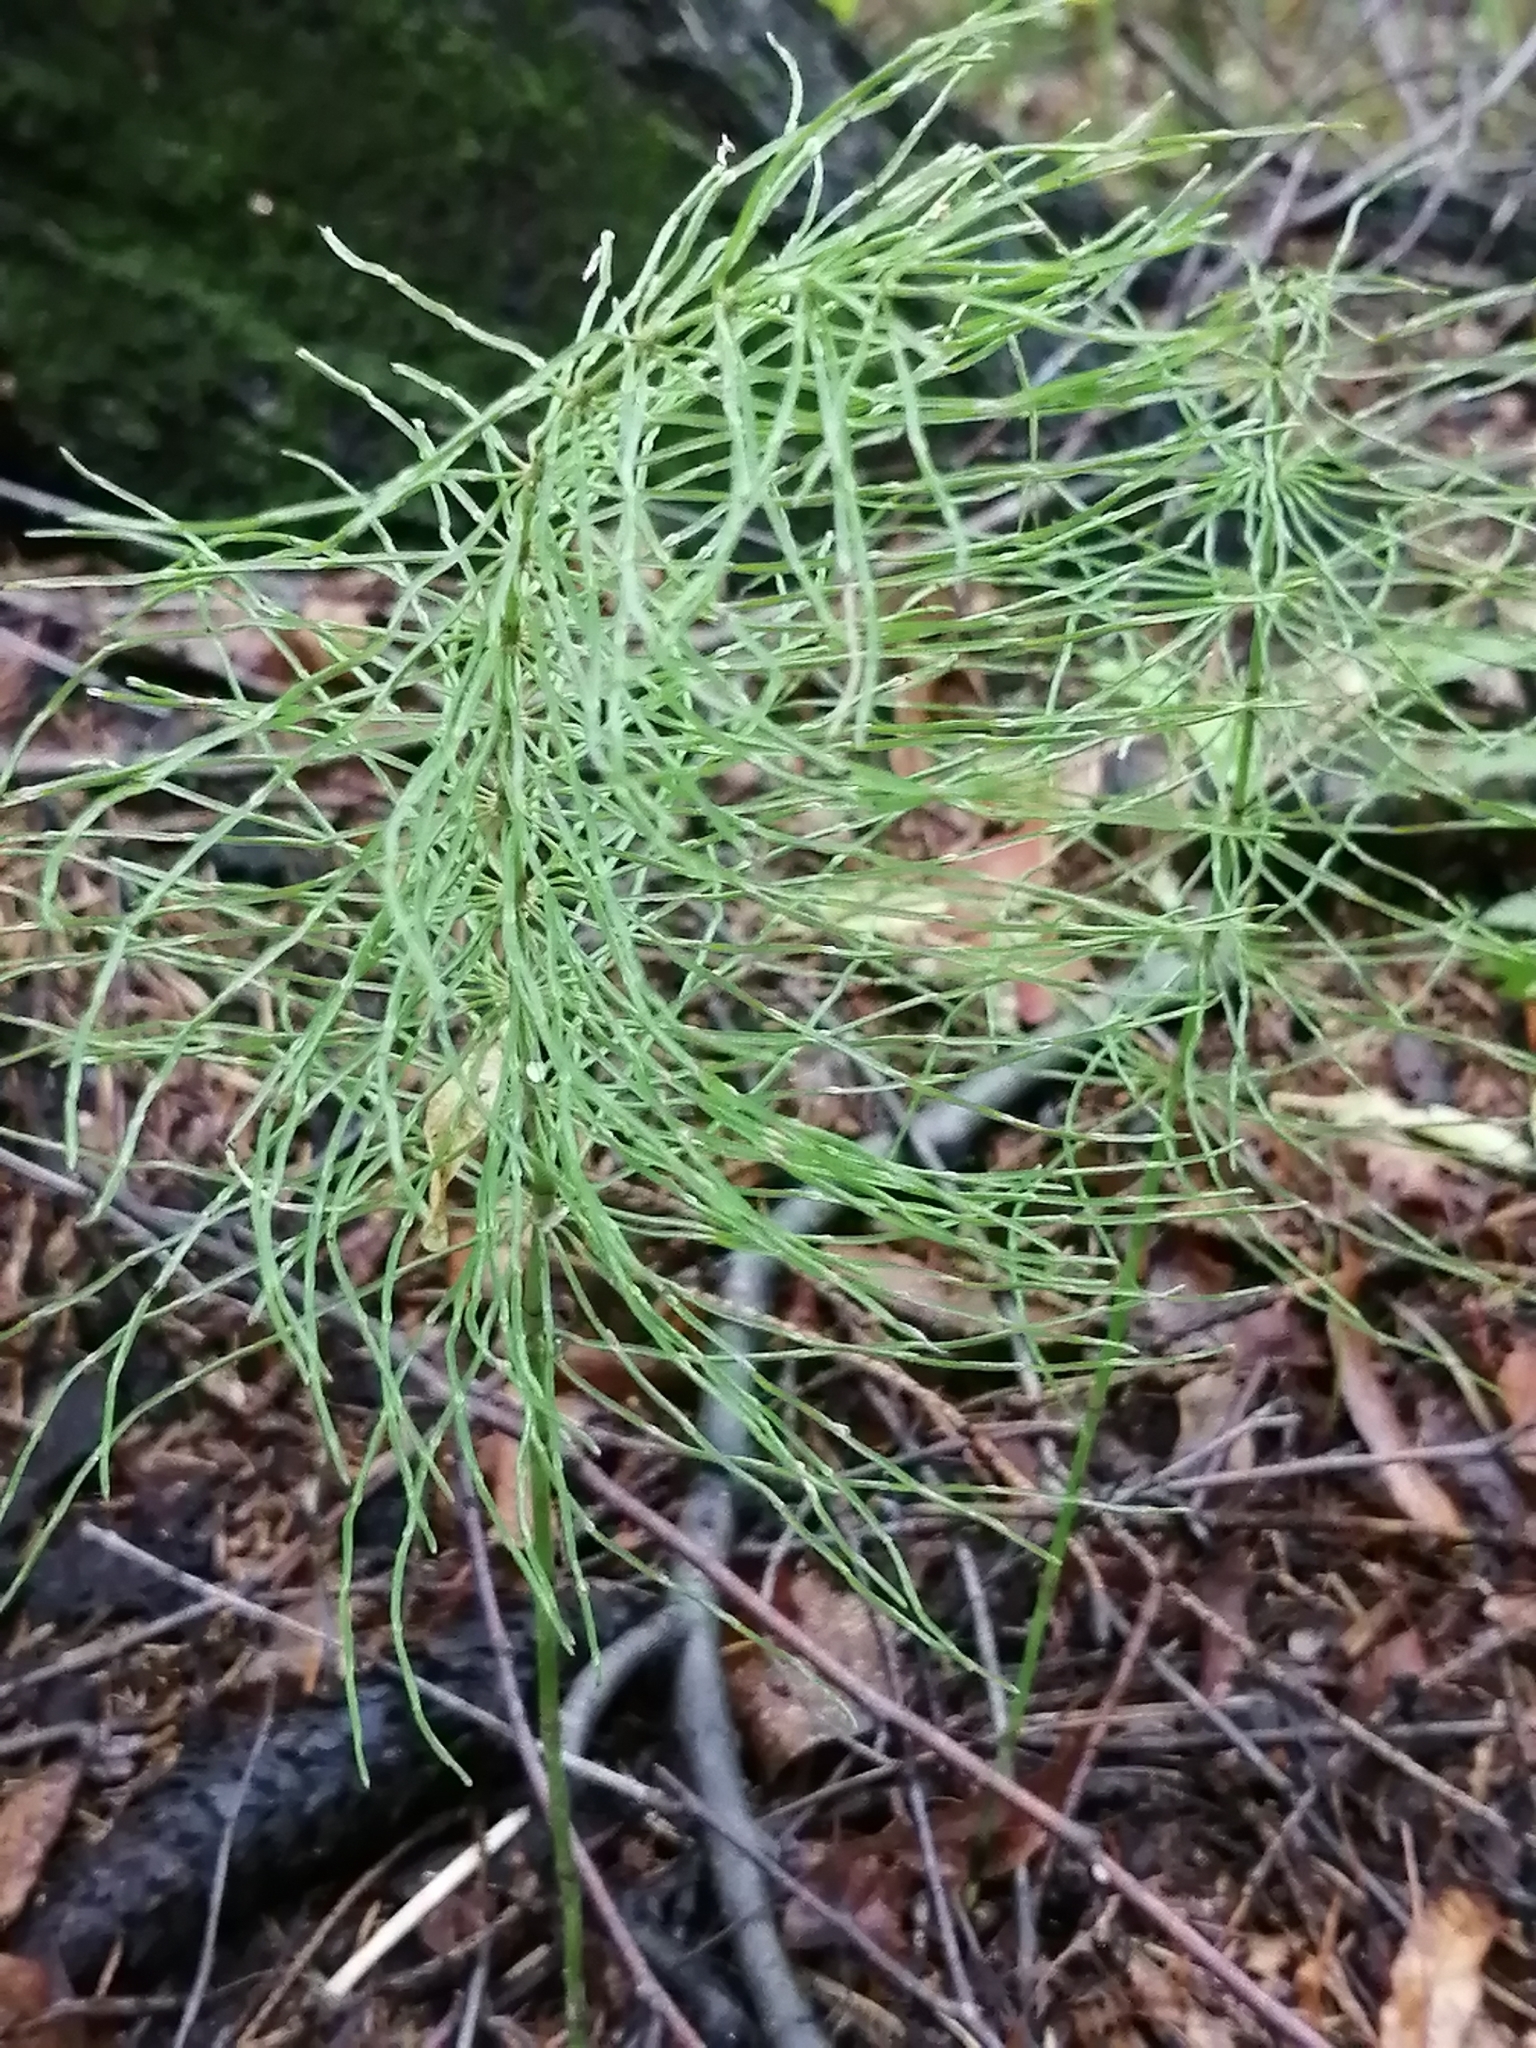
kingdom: Plantae
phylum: Tracheophyta
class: Polypodiopsida
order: Equisetales
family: Equisetaceae
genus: Equisetum
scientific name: Equisetum pratense
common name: Meadow horsetail
